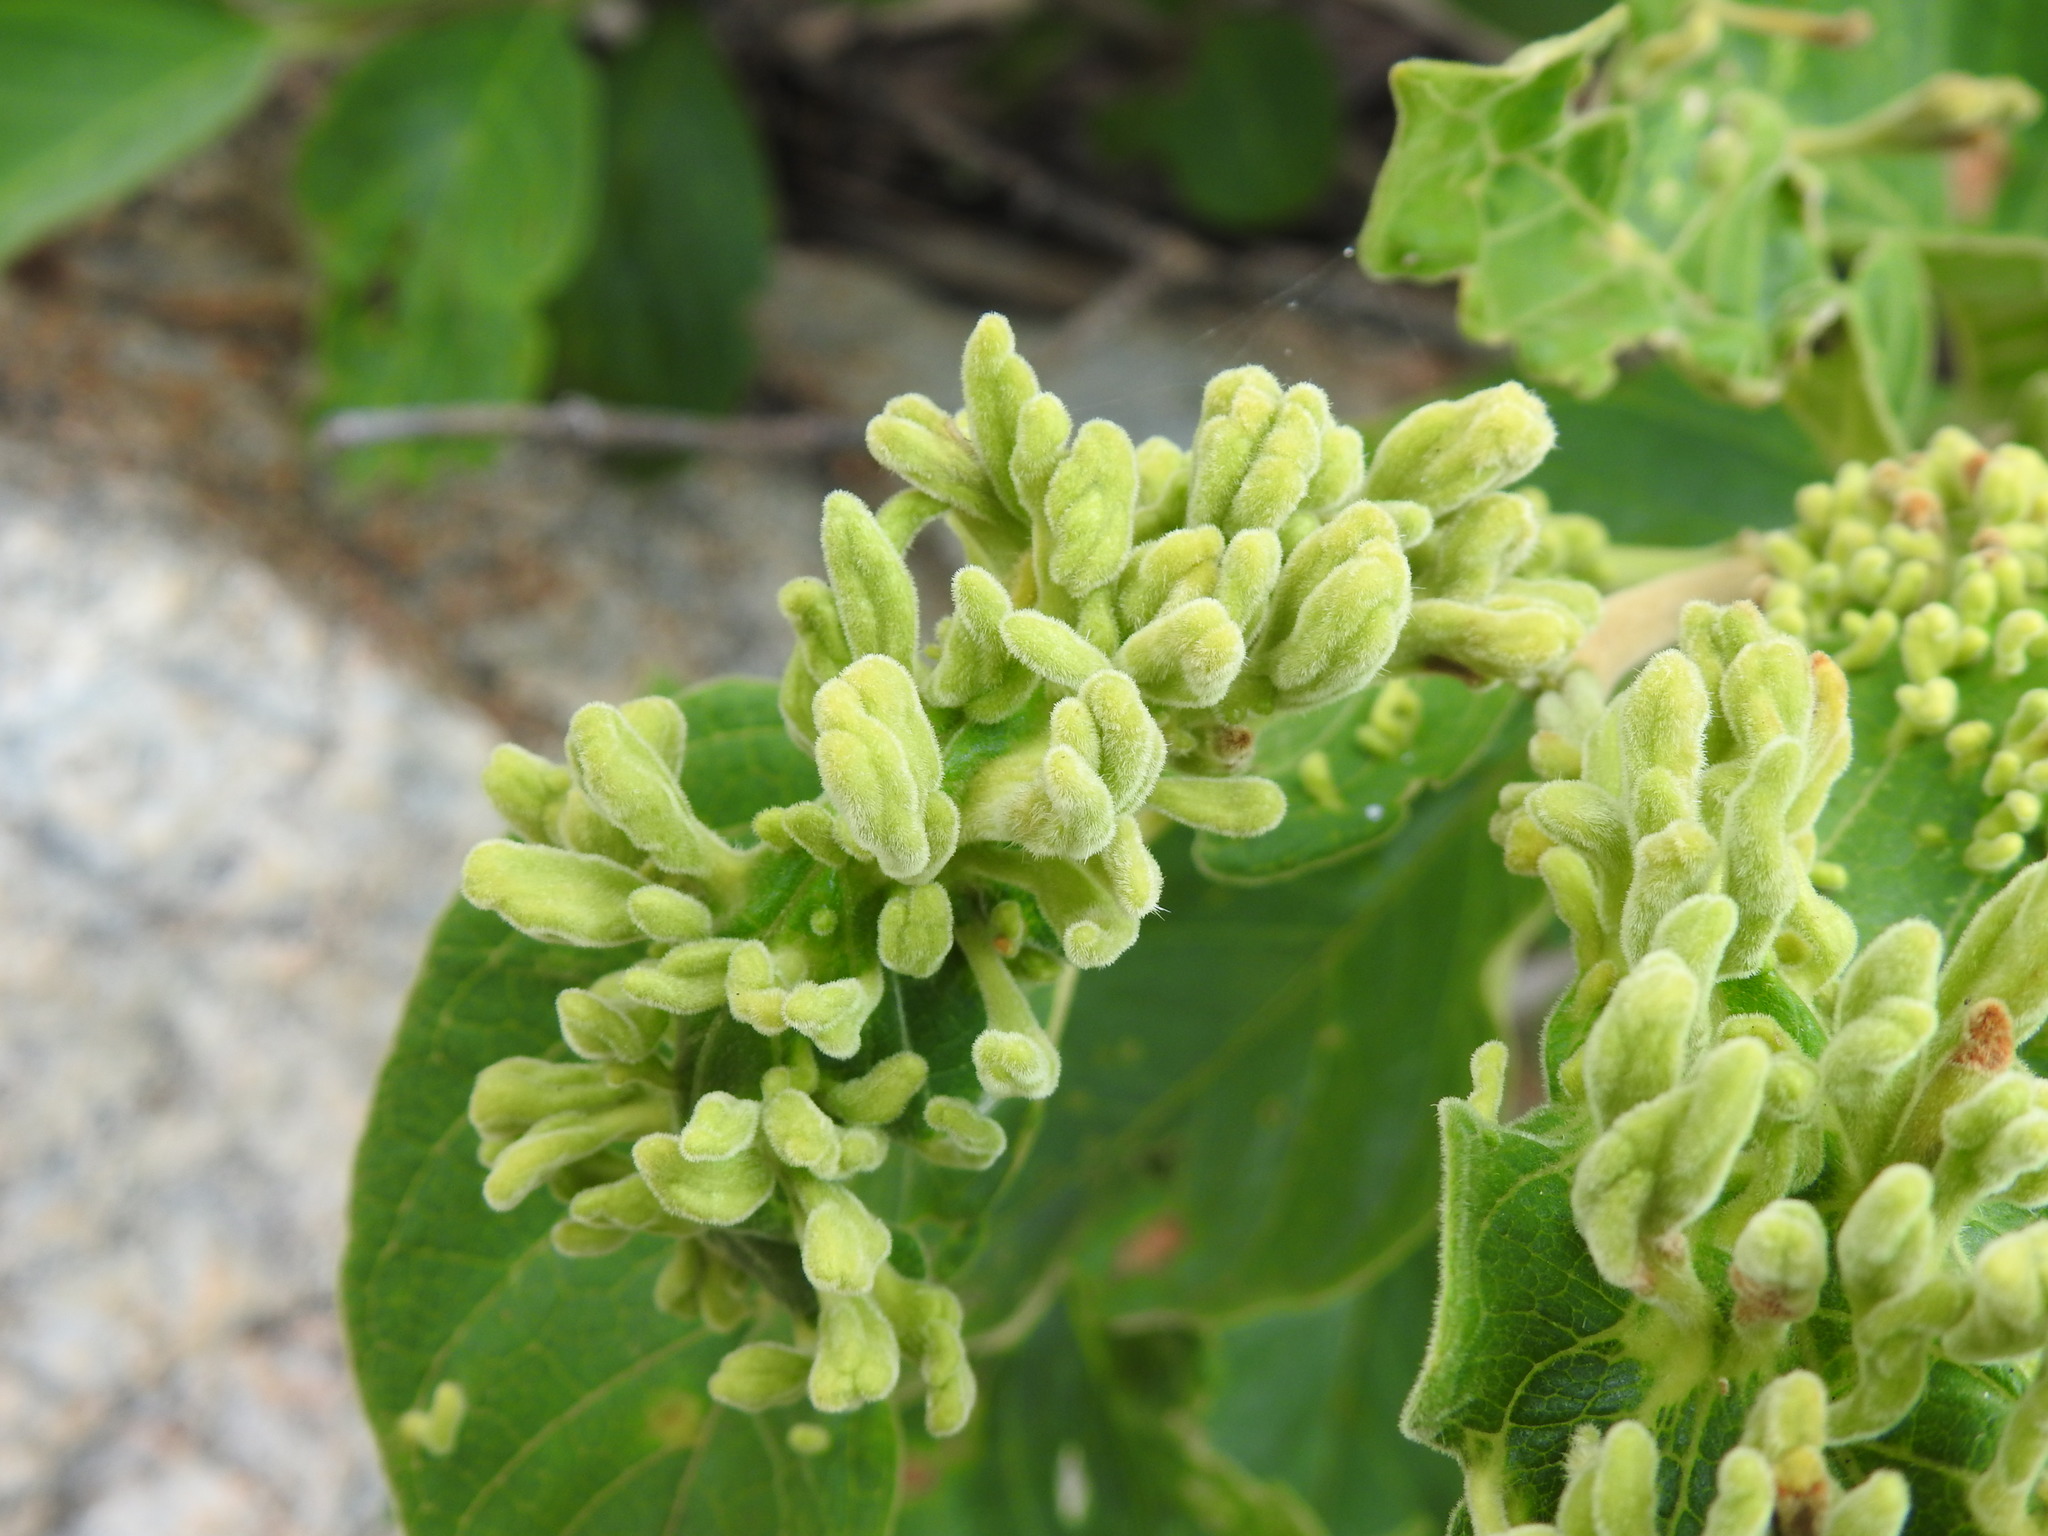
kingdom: Animalia
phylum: Arthropoda
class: Arachnida
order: Trombidiformes
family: Eriophyidae
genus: Acalitus
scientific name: Acalitus
